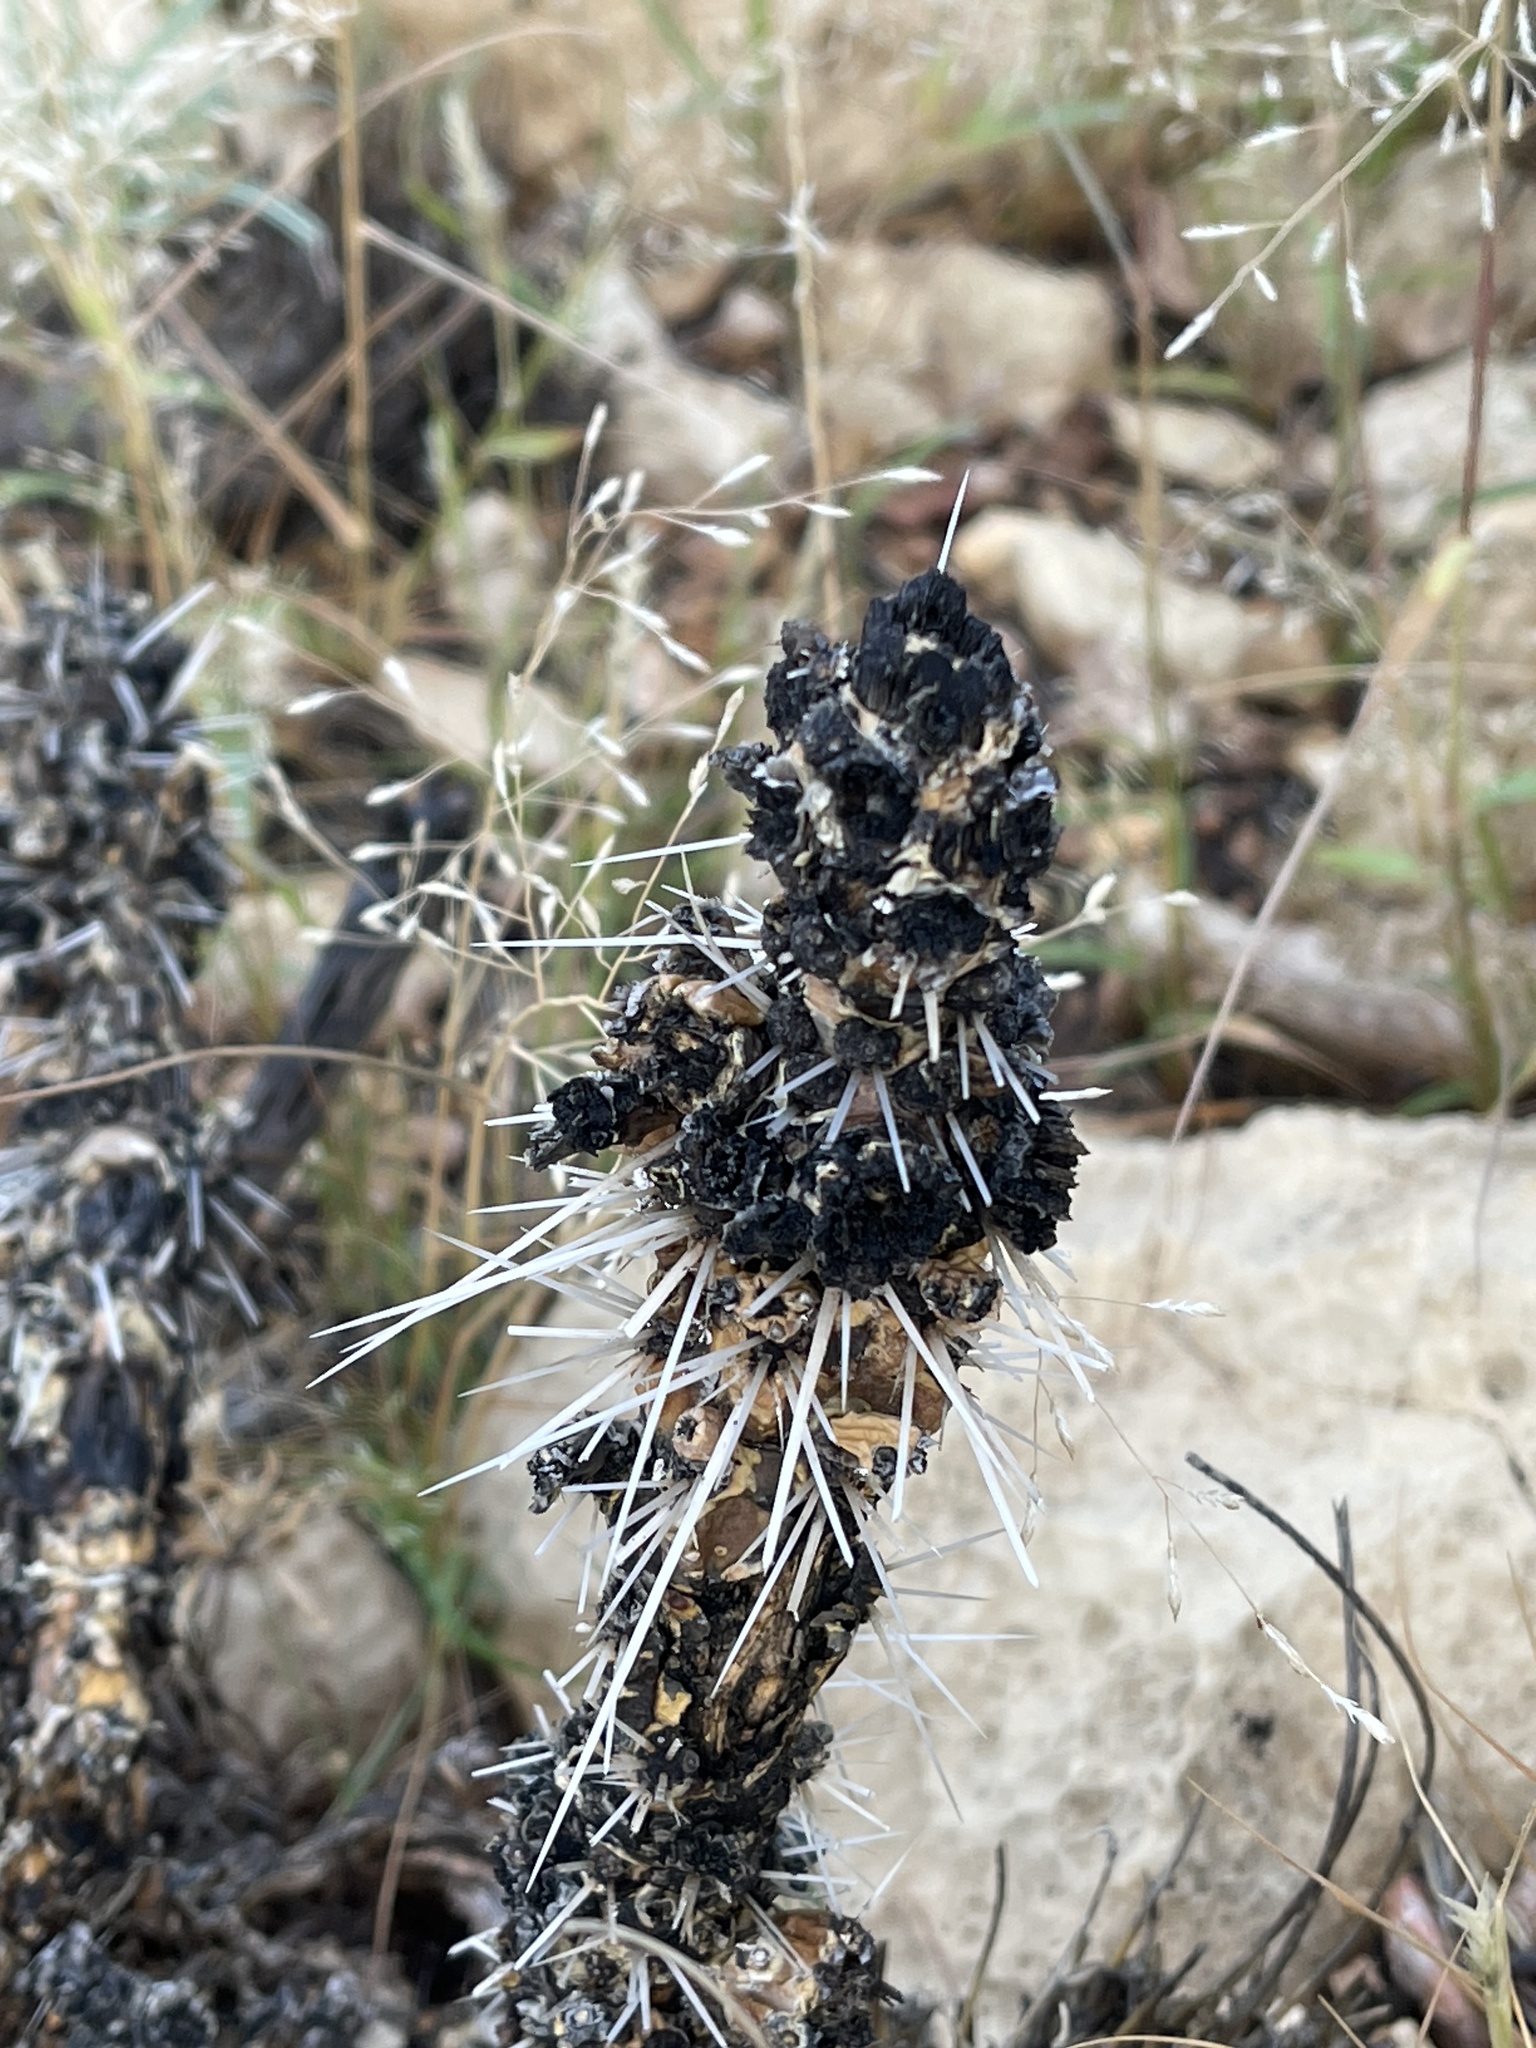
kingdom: Plantae
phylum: Tracheophyta
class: Magnoliopsida
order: Caryophyllales
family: Cactaceae
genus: Cylindropuntia
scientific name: Cylindropuntia whipplei
